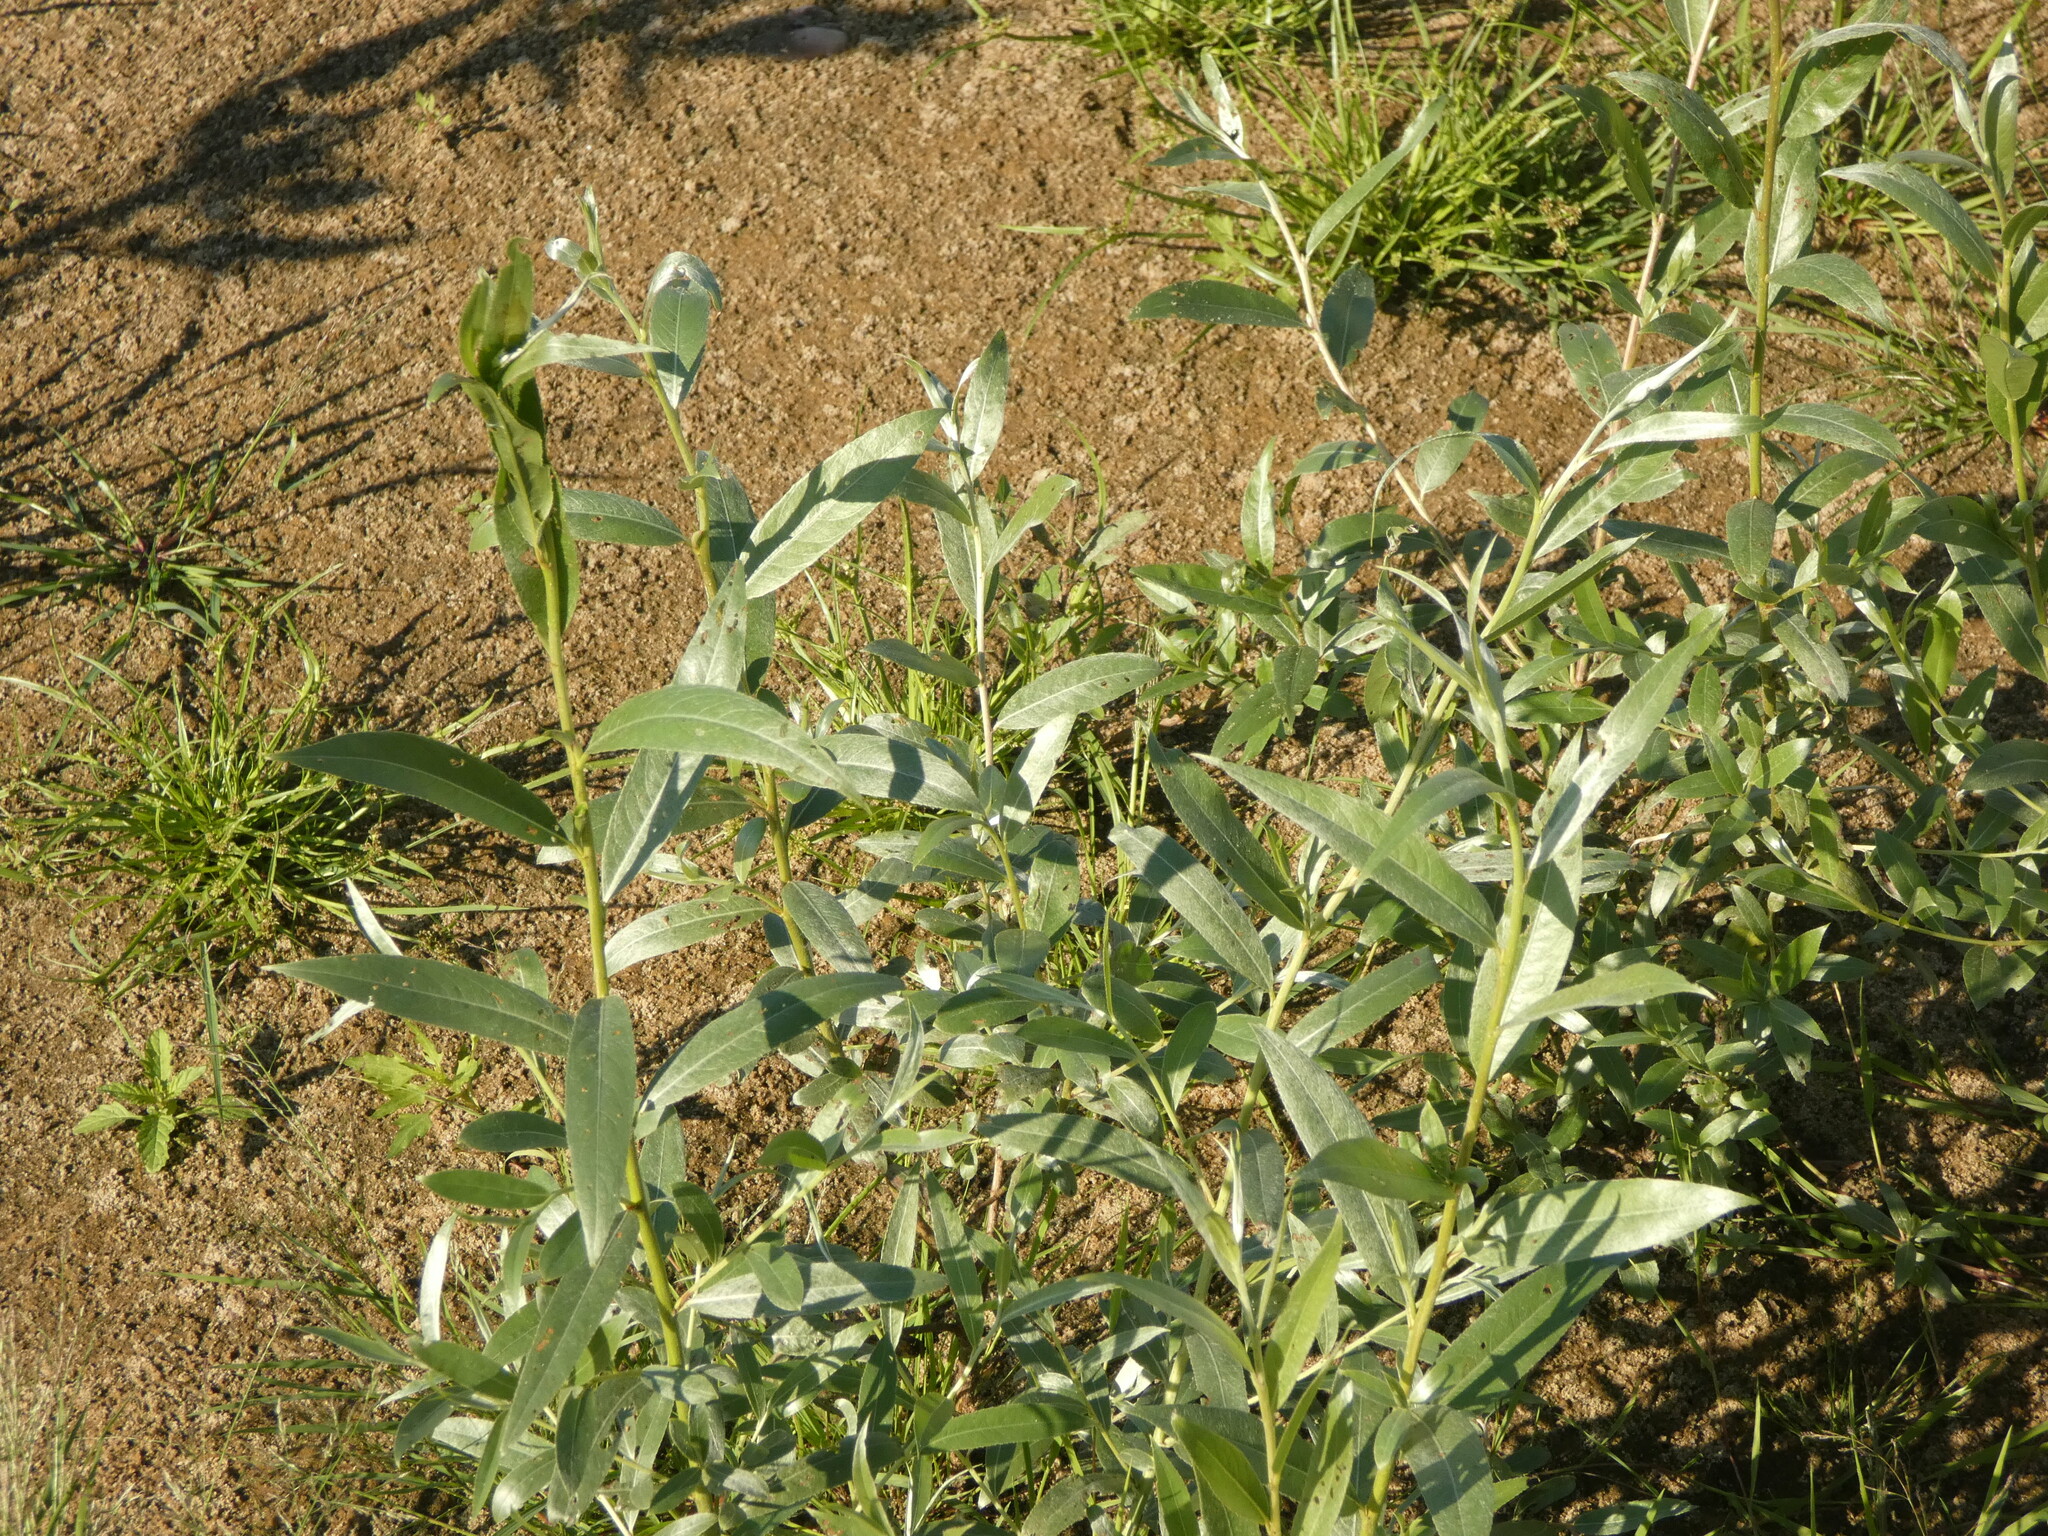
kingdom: Plantae
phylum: Tracheophyta
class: Magnoliopsida
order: Malpighiales
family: Salicaceae
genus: Salix
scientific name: Salix alba
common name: White willow
